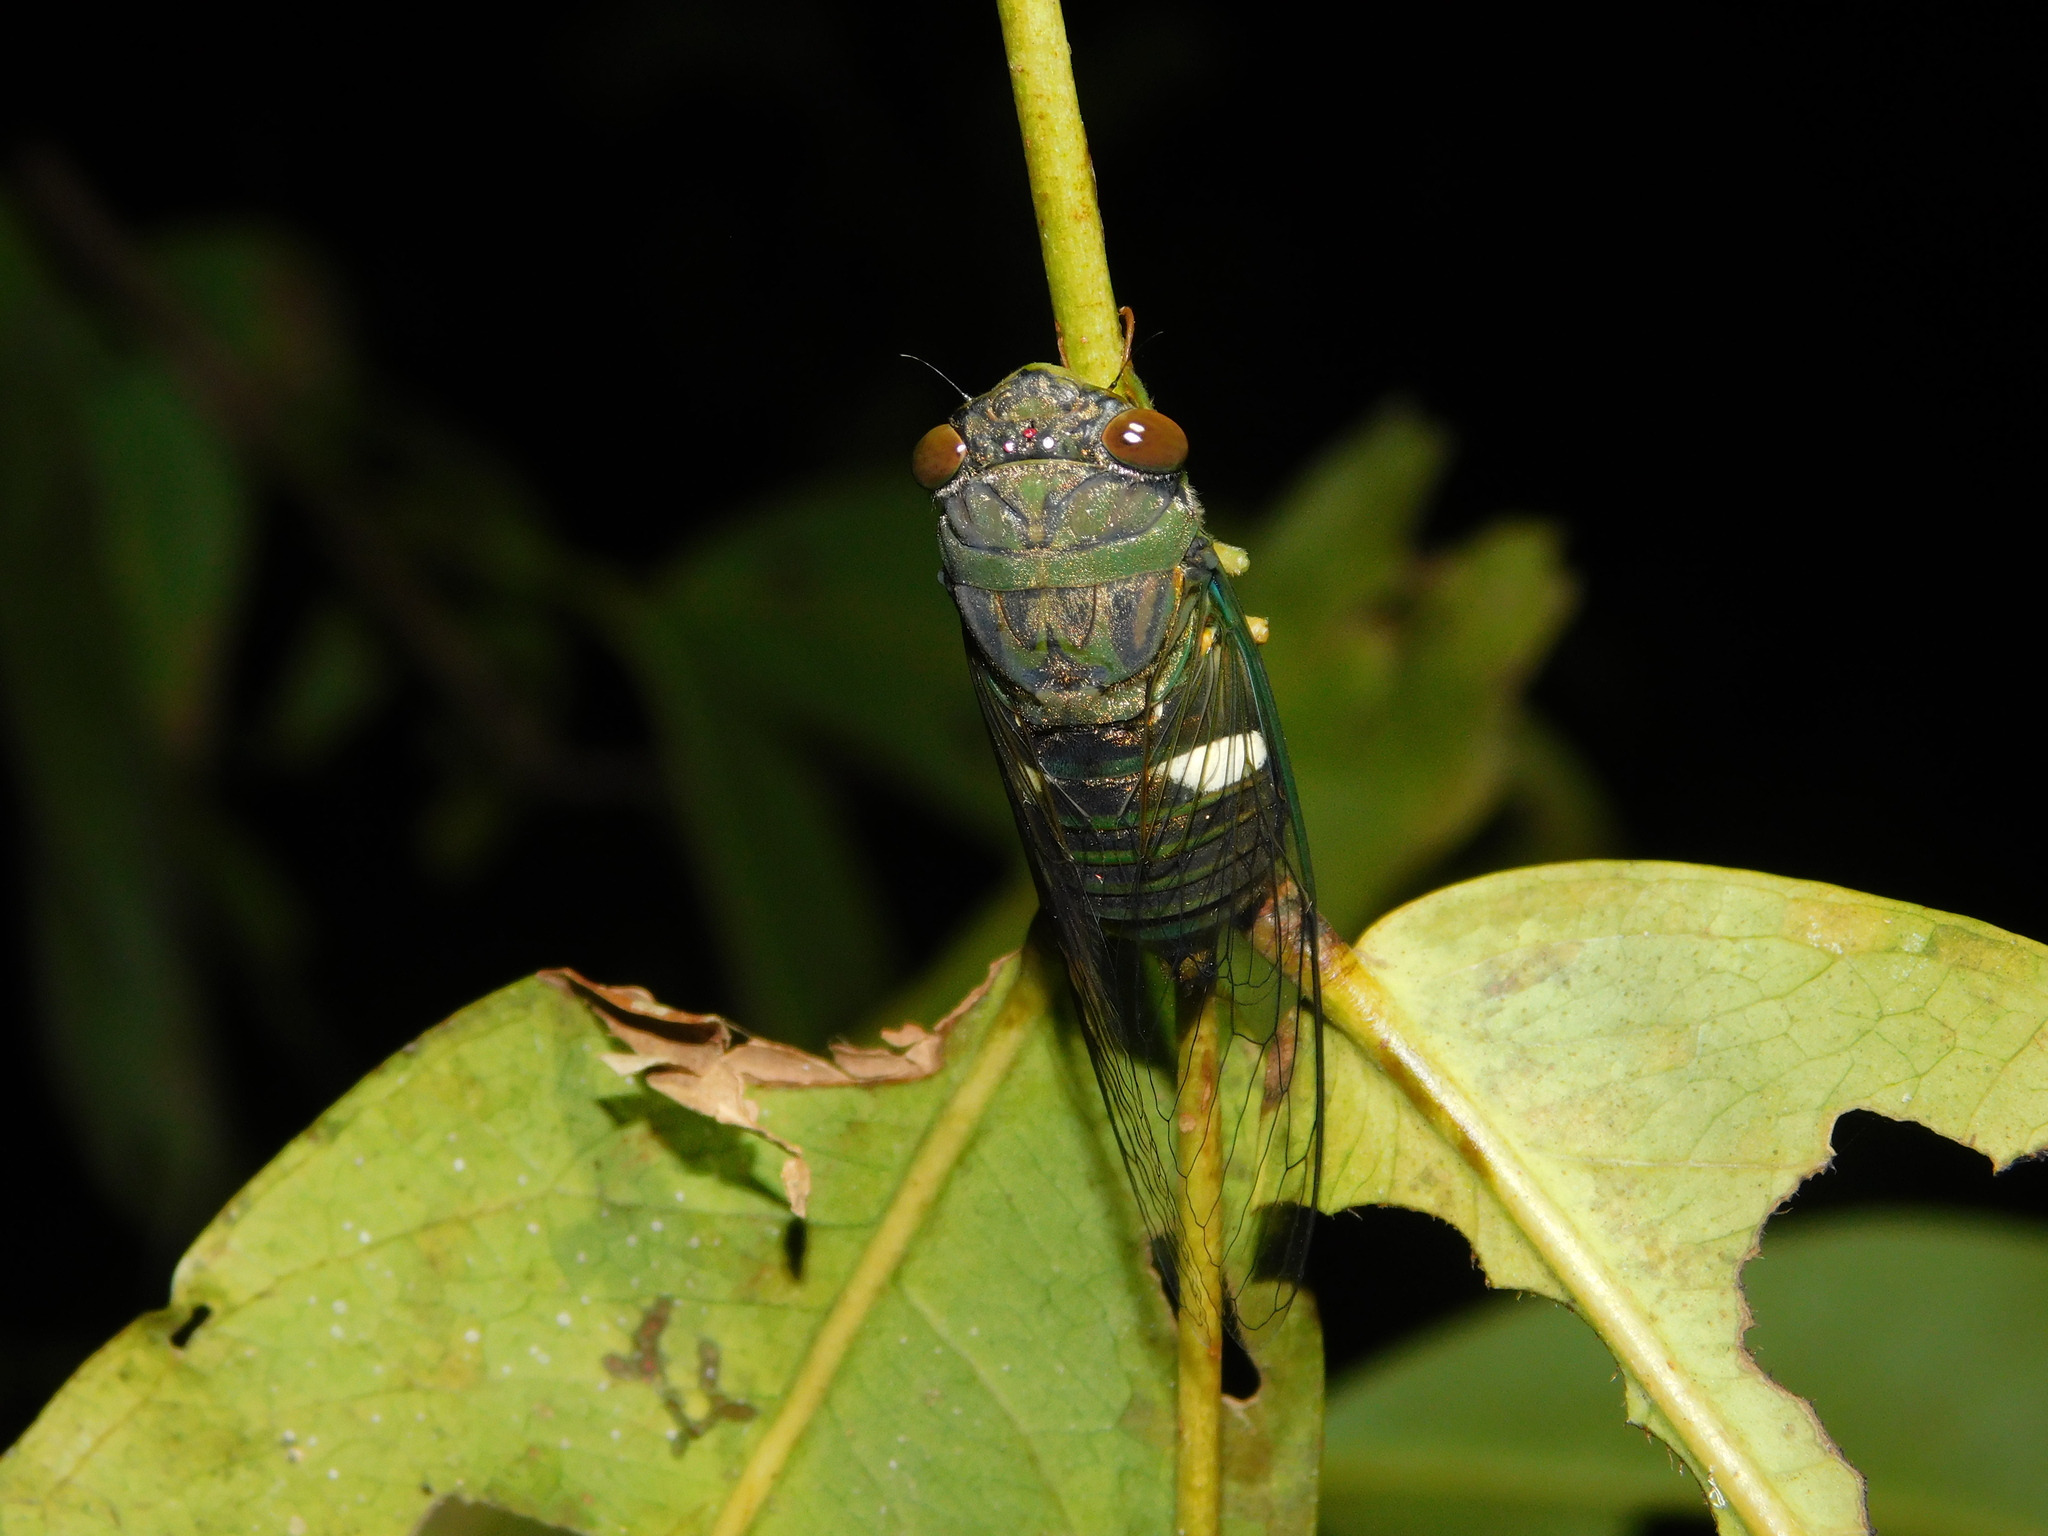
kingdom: Animalia
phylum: Arthropoda
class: Insecta
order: Hemiptera
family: Cicadidae
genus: Chremistica
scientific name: Chremistica atrovirens
